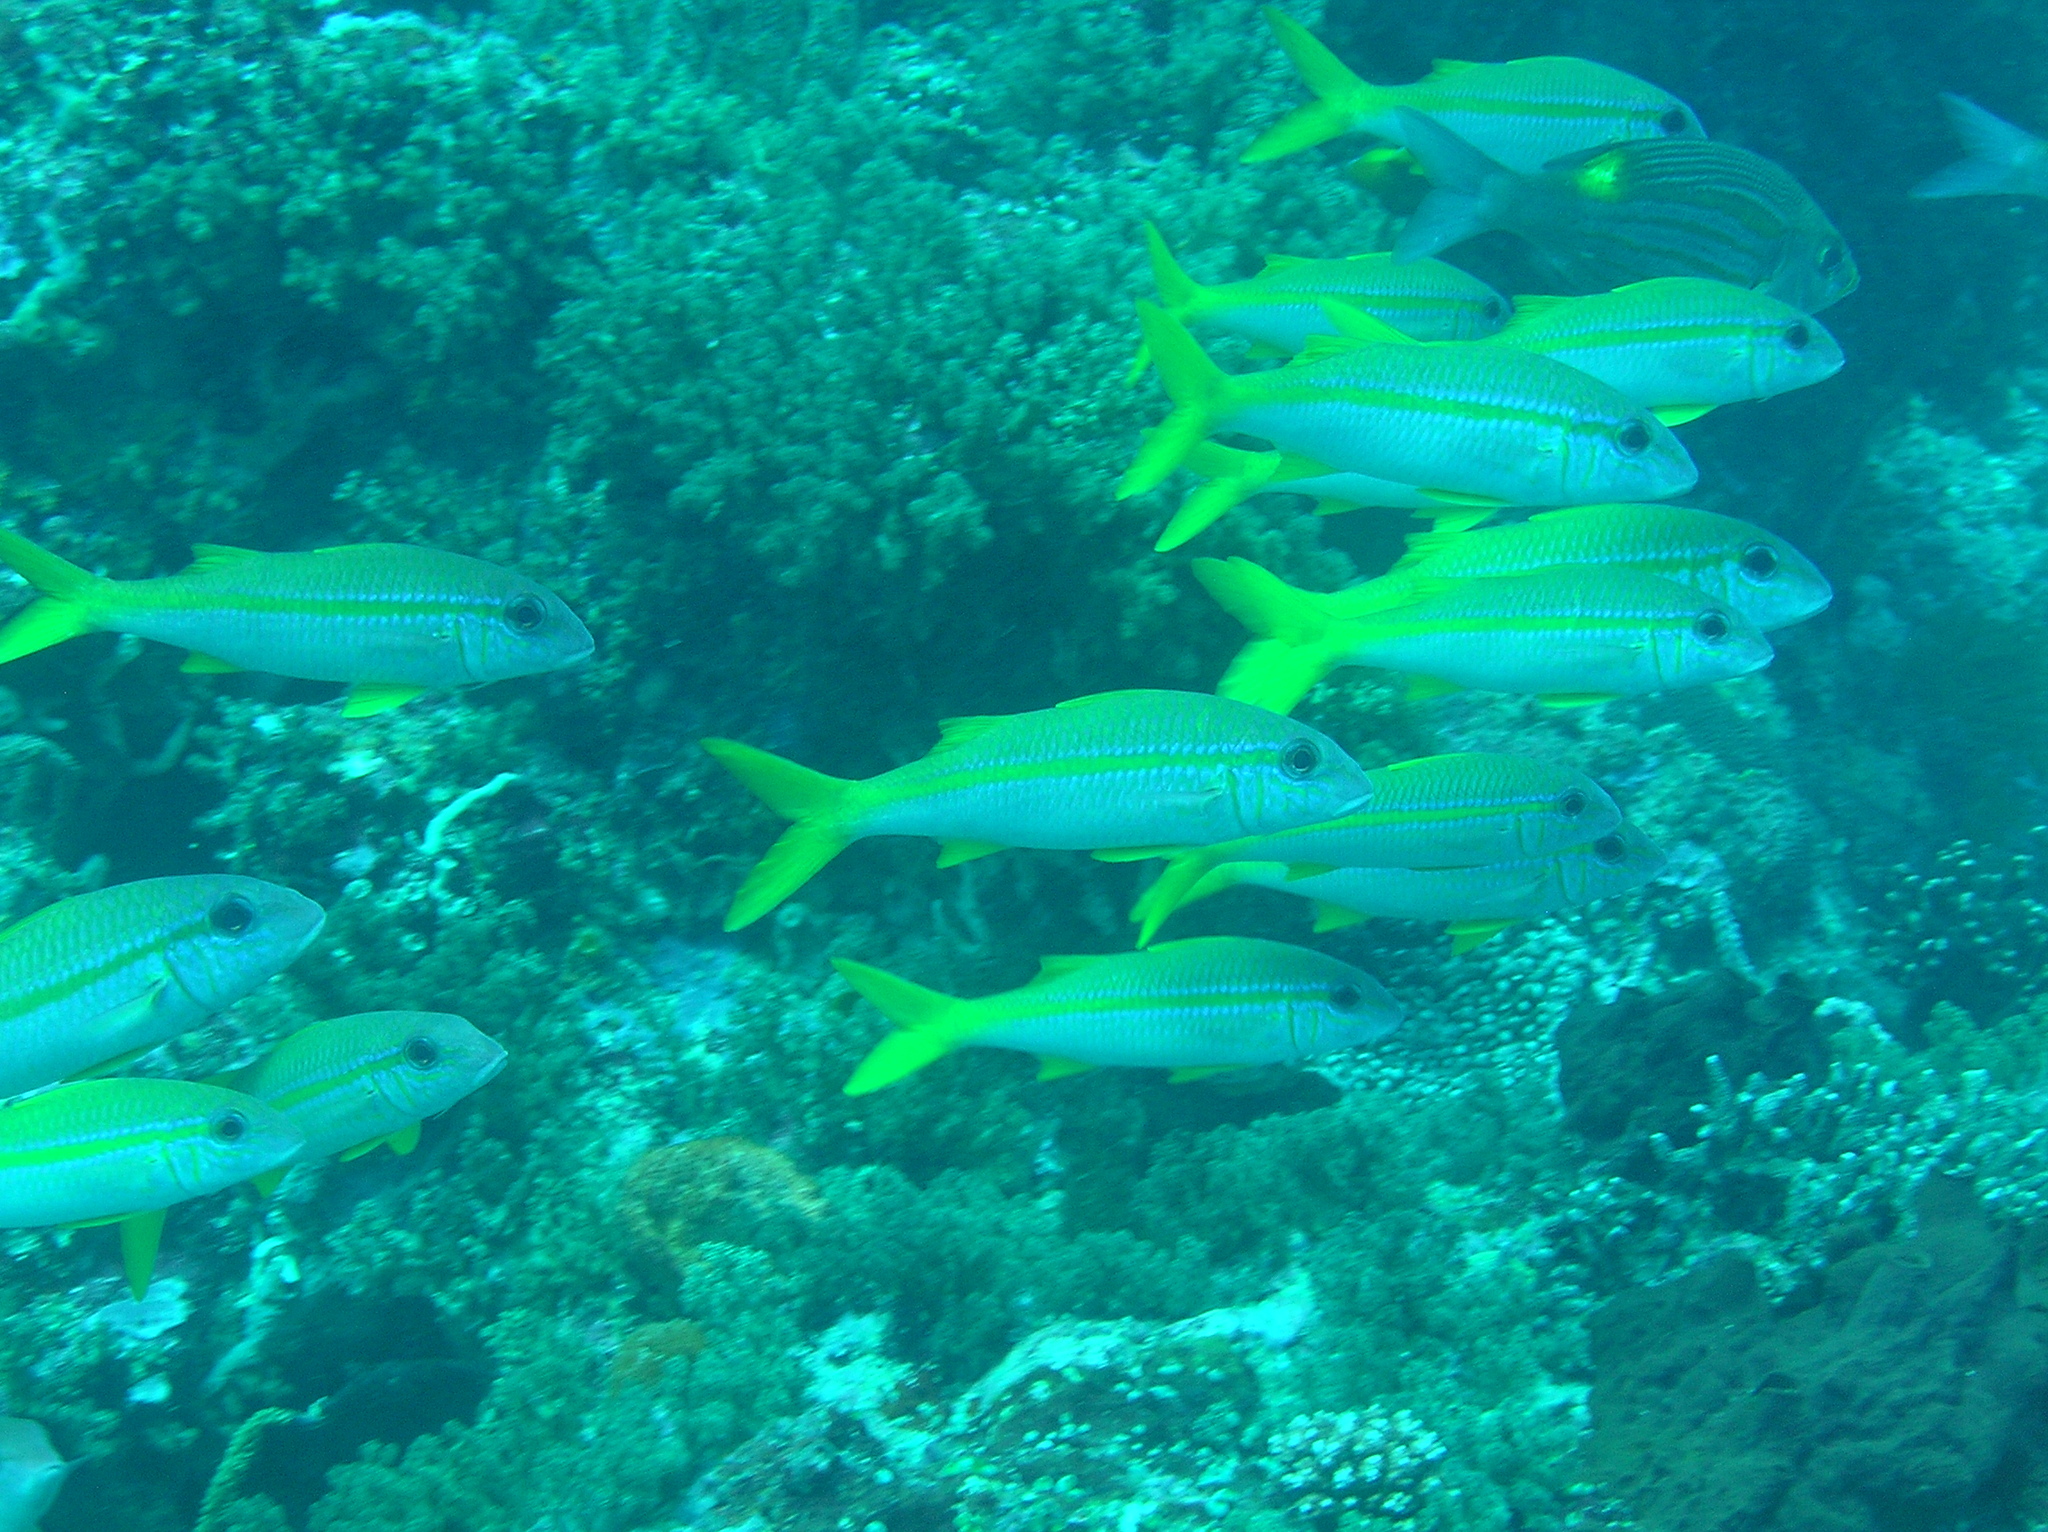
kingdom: Animalia
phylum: Chordata
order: Perciformes
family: Mullidae
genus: Mulloidichthys
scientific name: Mulloidichthys vanicolensis
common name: Yellowfin goatfish
